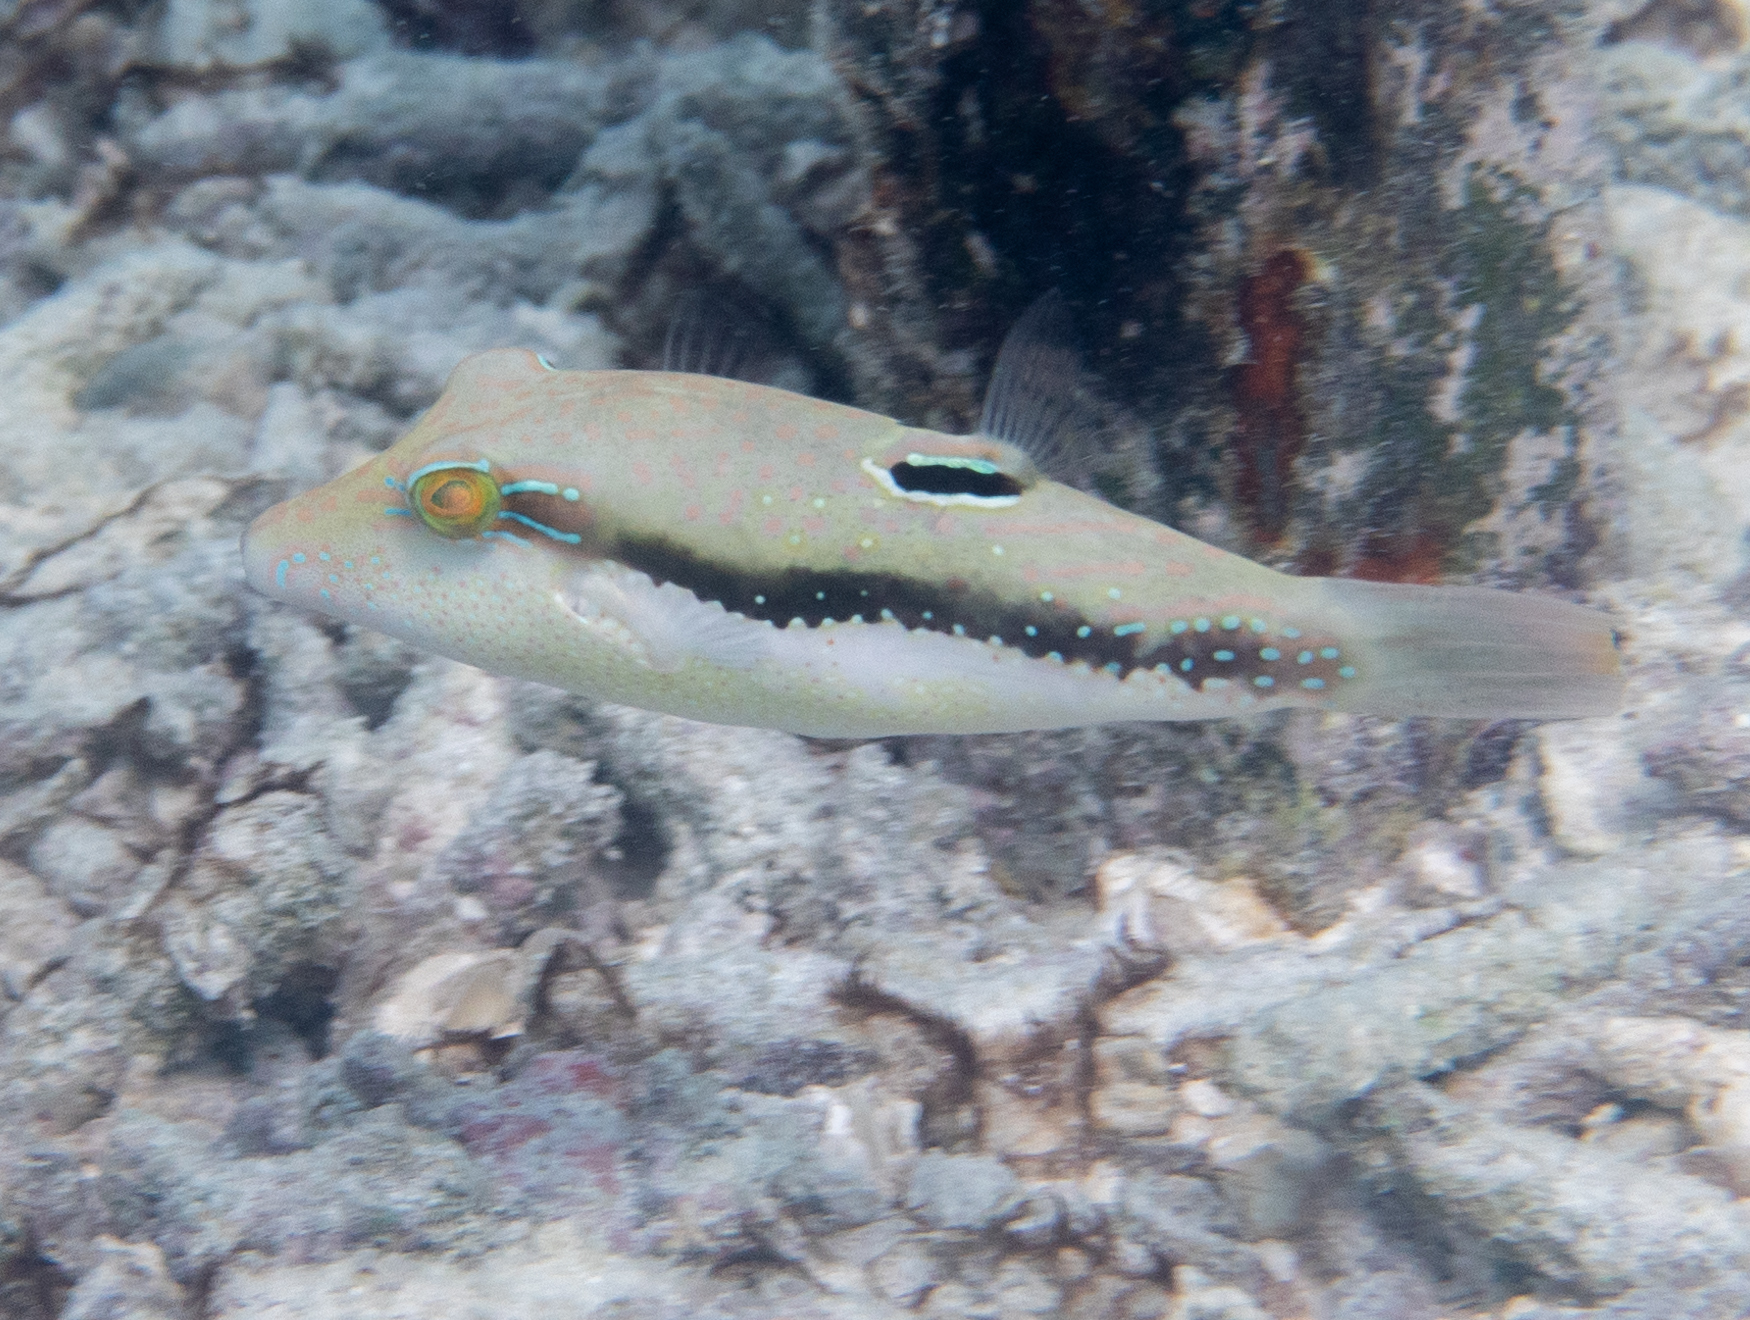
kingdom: Animalia
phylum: Chordata
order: Tetraodontiformes
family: Tetraodontidae
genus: Canthigaster
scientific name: Canthigaster bennetti
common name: Bennett's pufferfish
